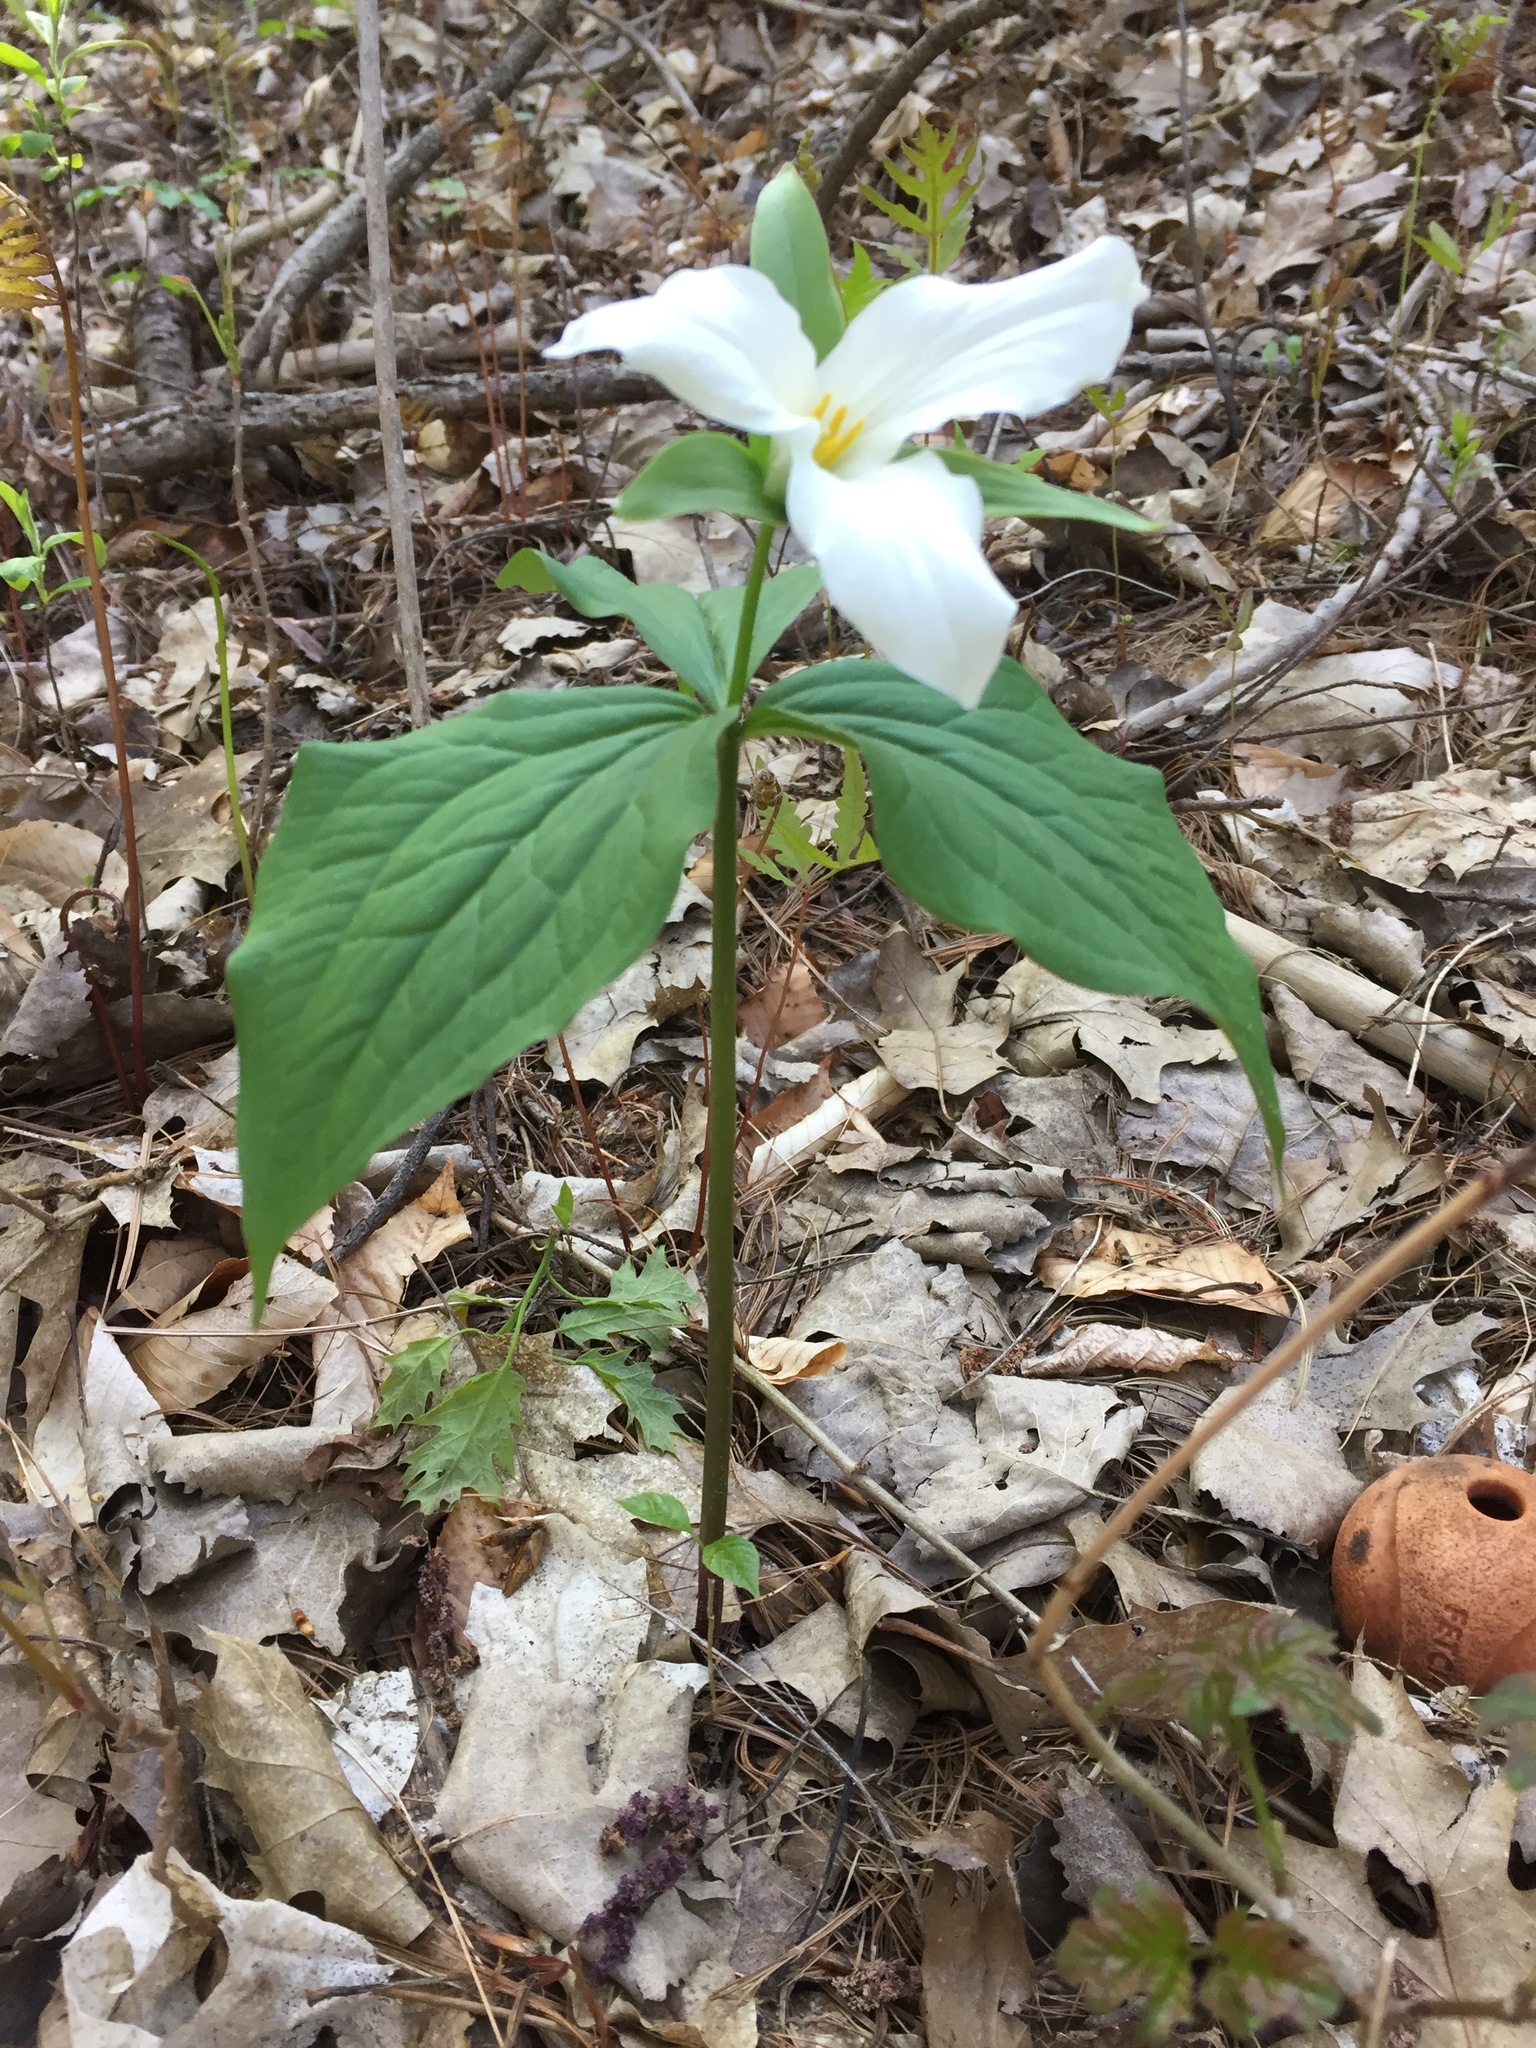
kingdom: Plantae
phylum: Tracheophyta
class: Liliopsida
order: Liliales
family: Melanthiaceae
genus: Trillium
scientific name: Trillium grandiflorum
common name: Great white trillium
